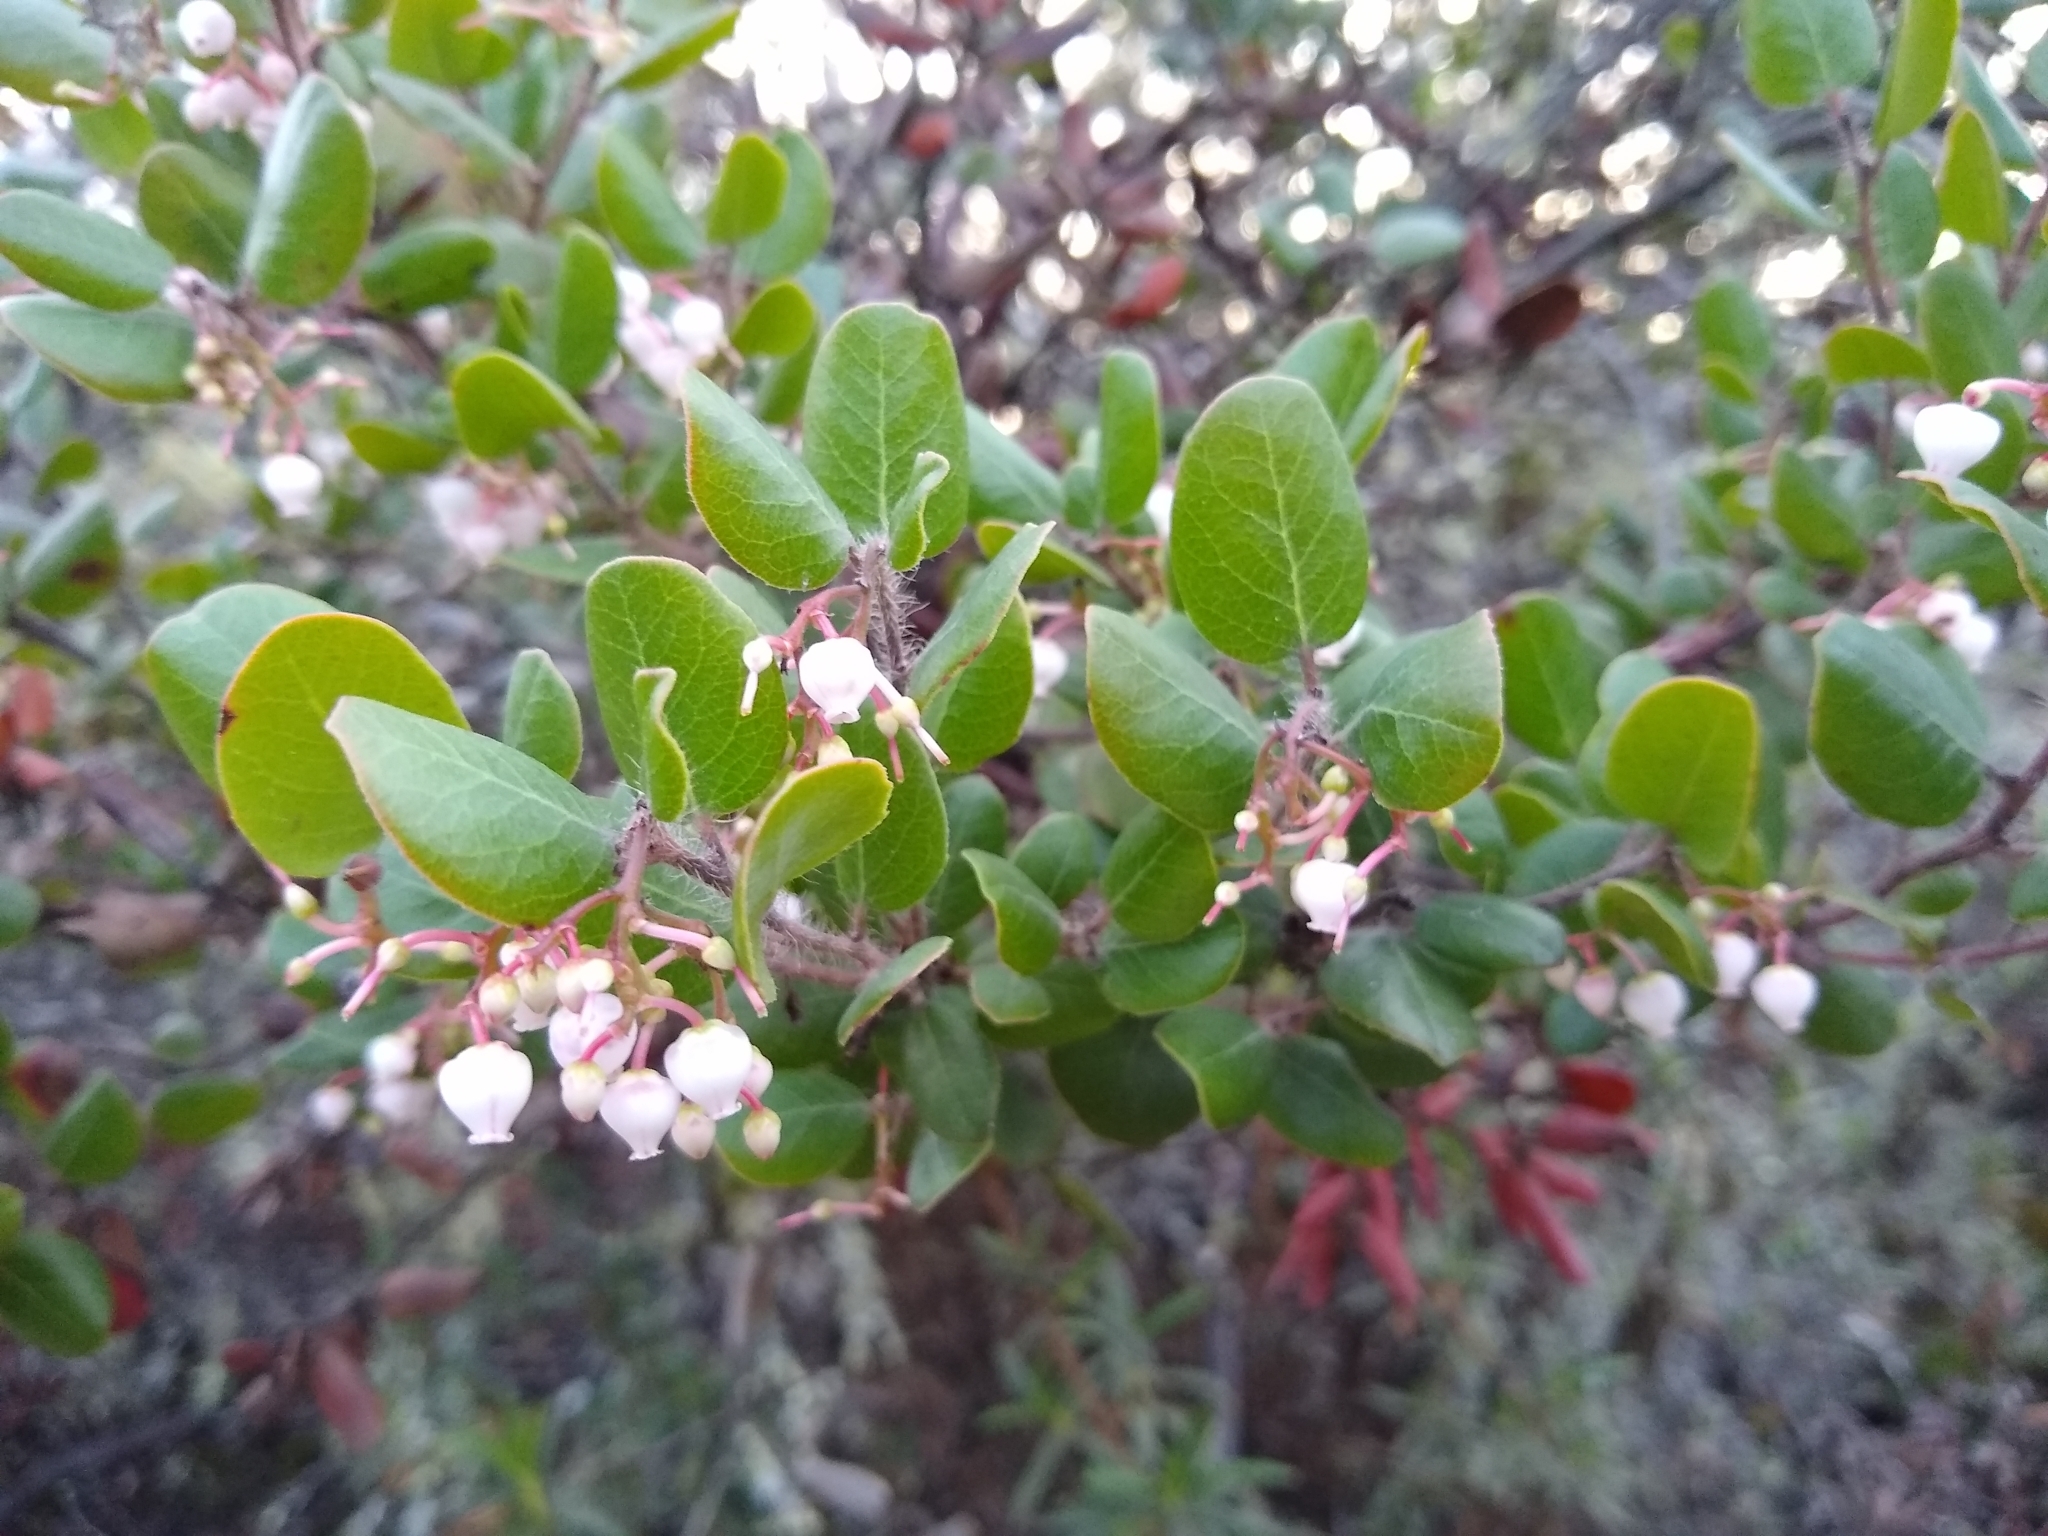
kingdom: Plantae
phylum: Tracheophyta
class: Magnoliopsida
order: Ericales
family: Ericaceae
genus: Arctostaphylos
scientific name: Arctostaphylos nummularia
